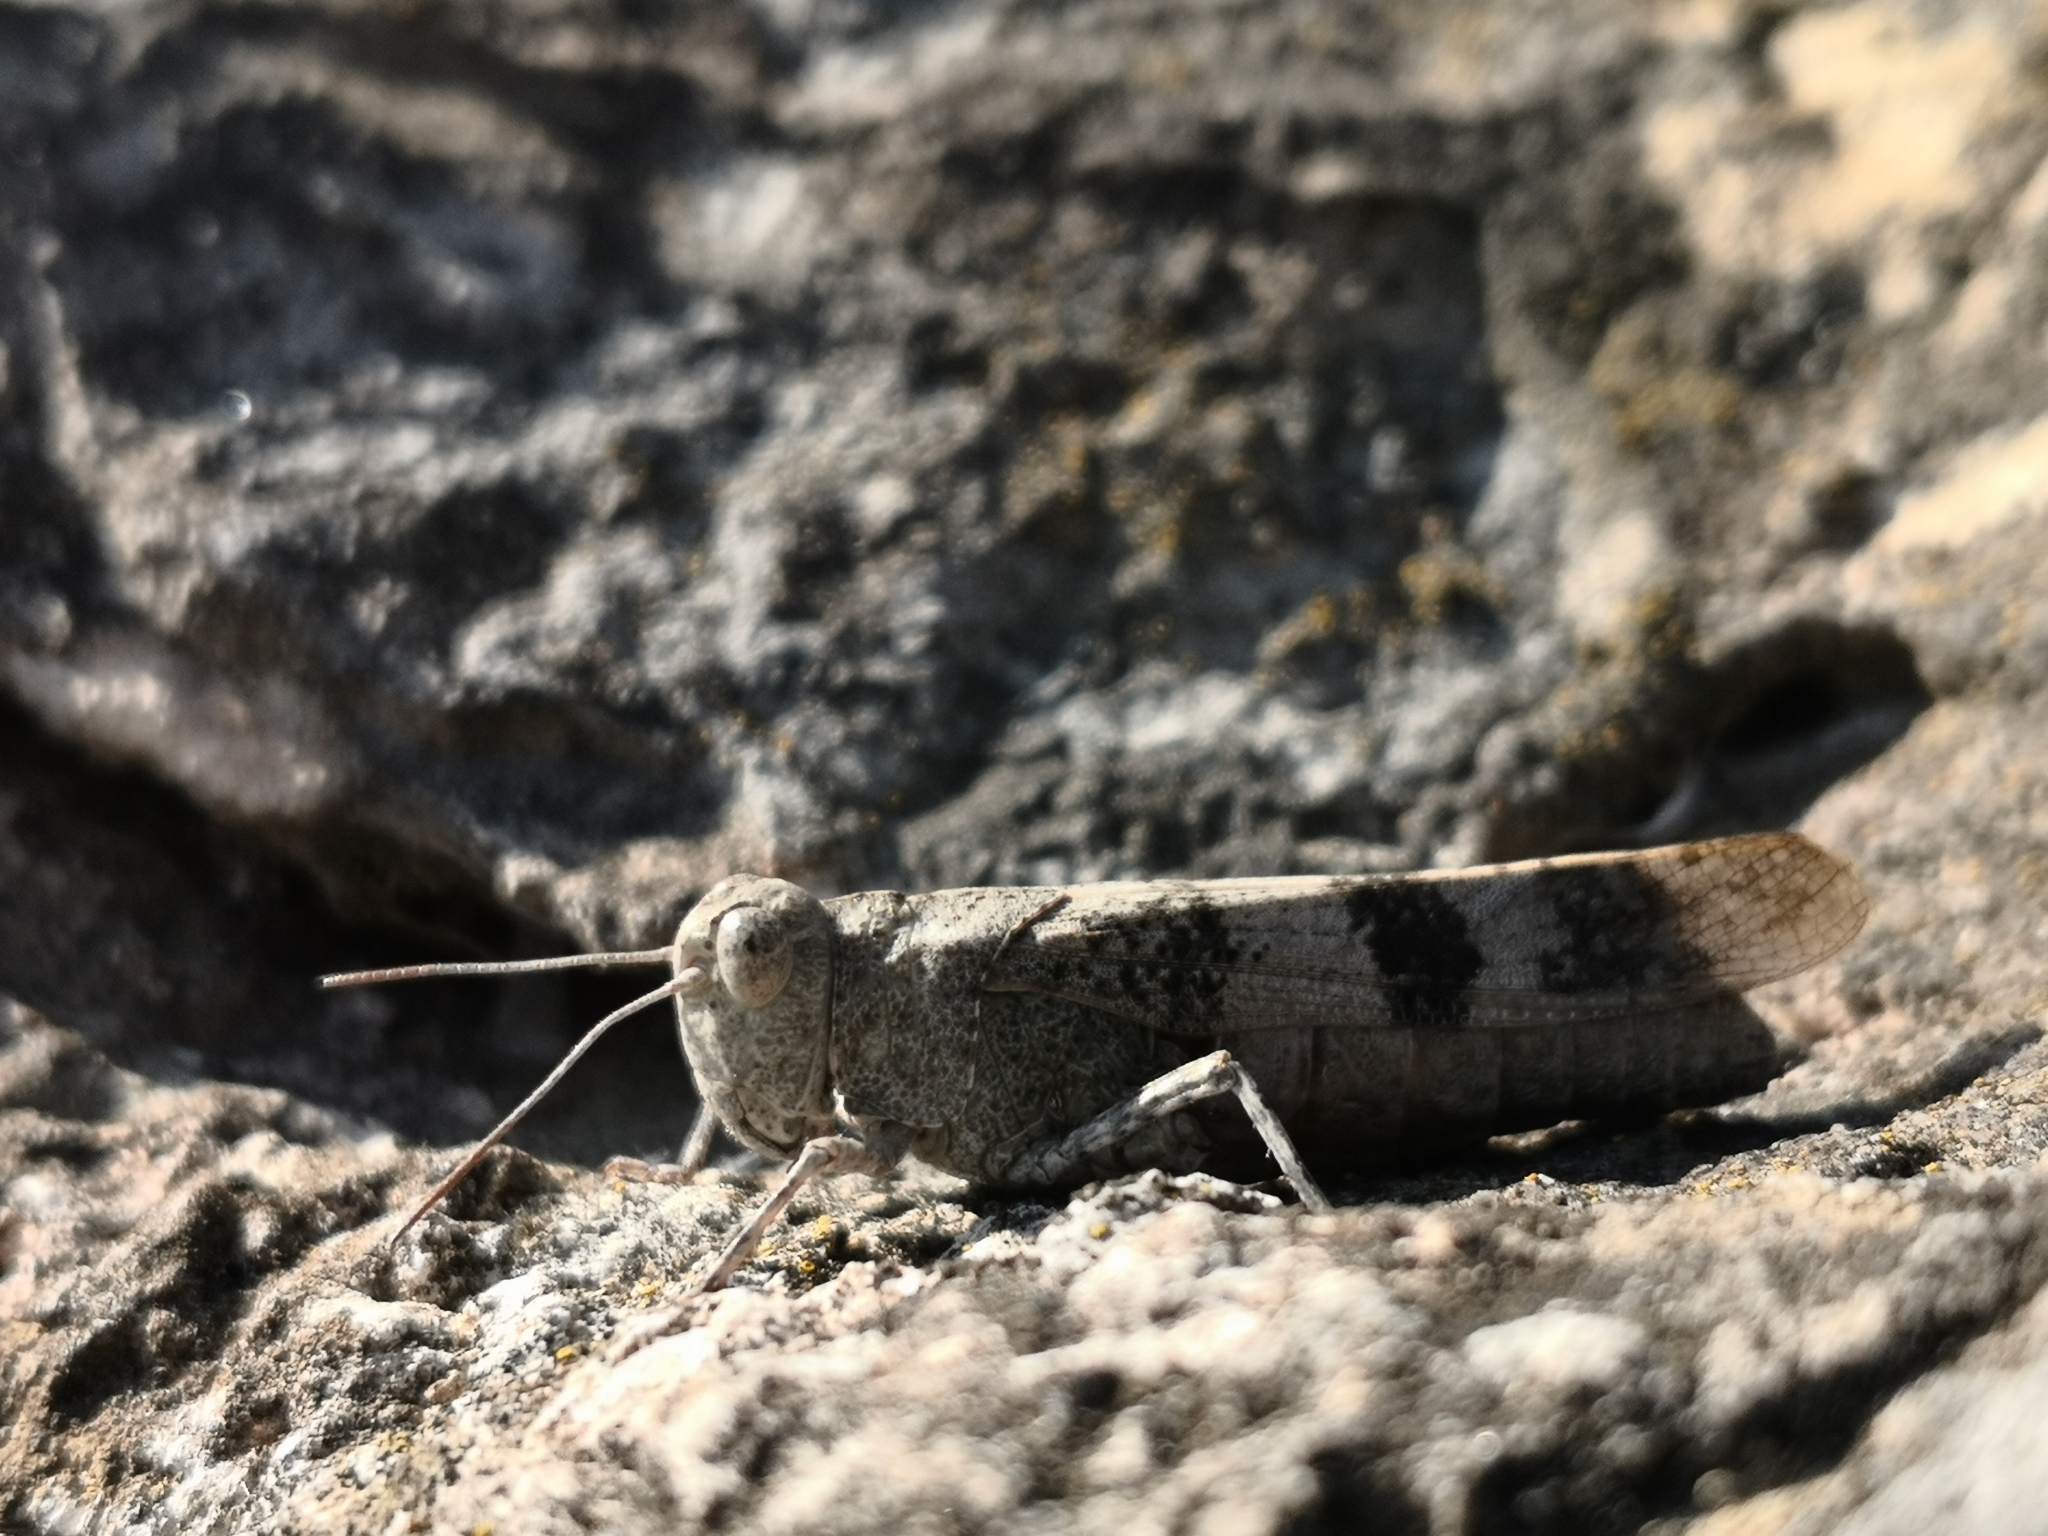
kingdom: Animalia
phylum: Arthropoda
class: Insecta
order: Orthoptera
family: Acrididae
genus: Oedipoda
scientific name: Oedipoda germanica
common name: Red band-winged grasshopper
